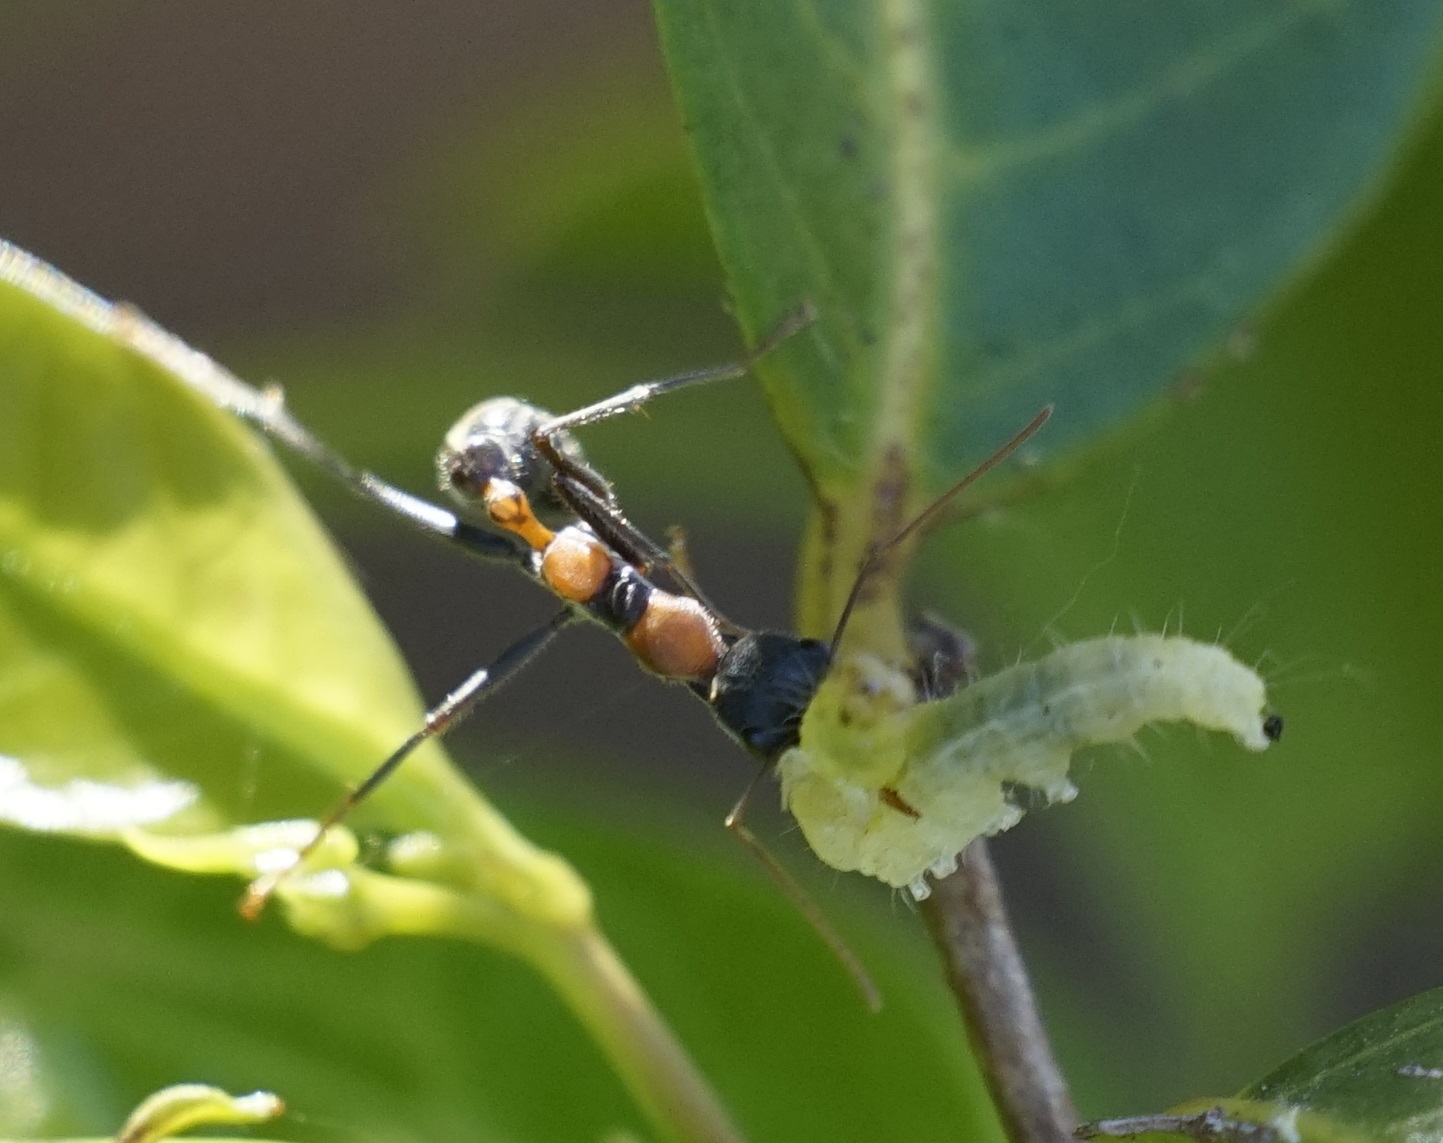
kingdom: Animalia
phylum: Arthropoda
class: Insecta
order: Hymenoptera
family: Formicidae
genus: Myrmecia
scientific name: Myrmecia nigrocincta
